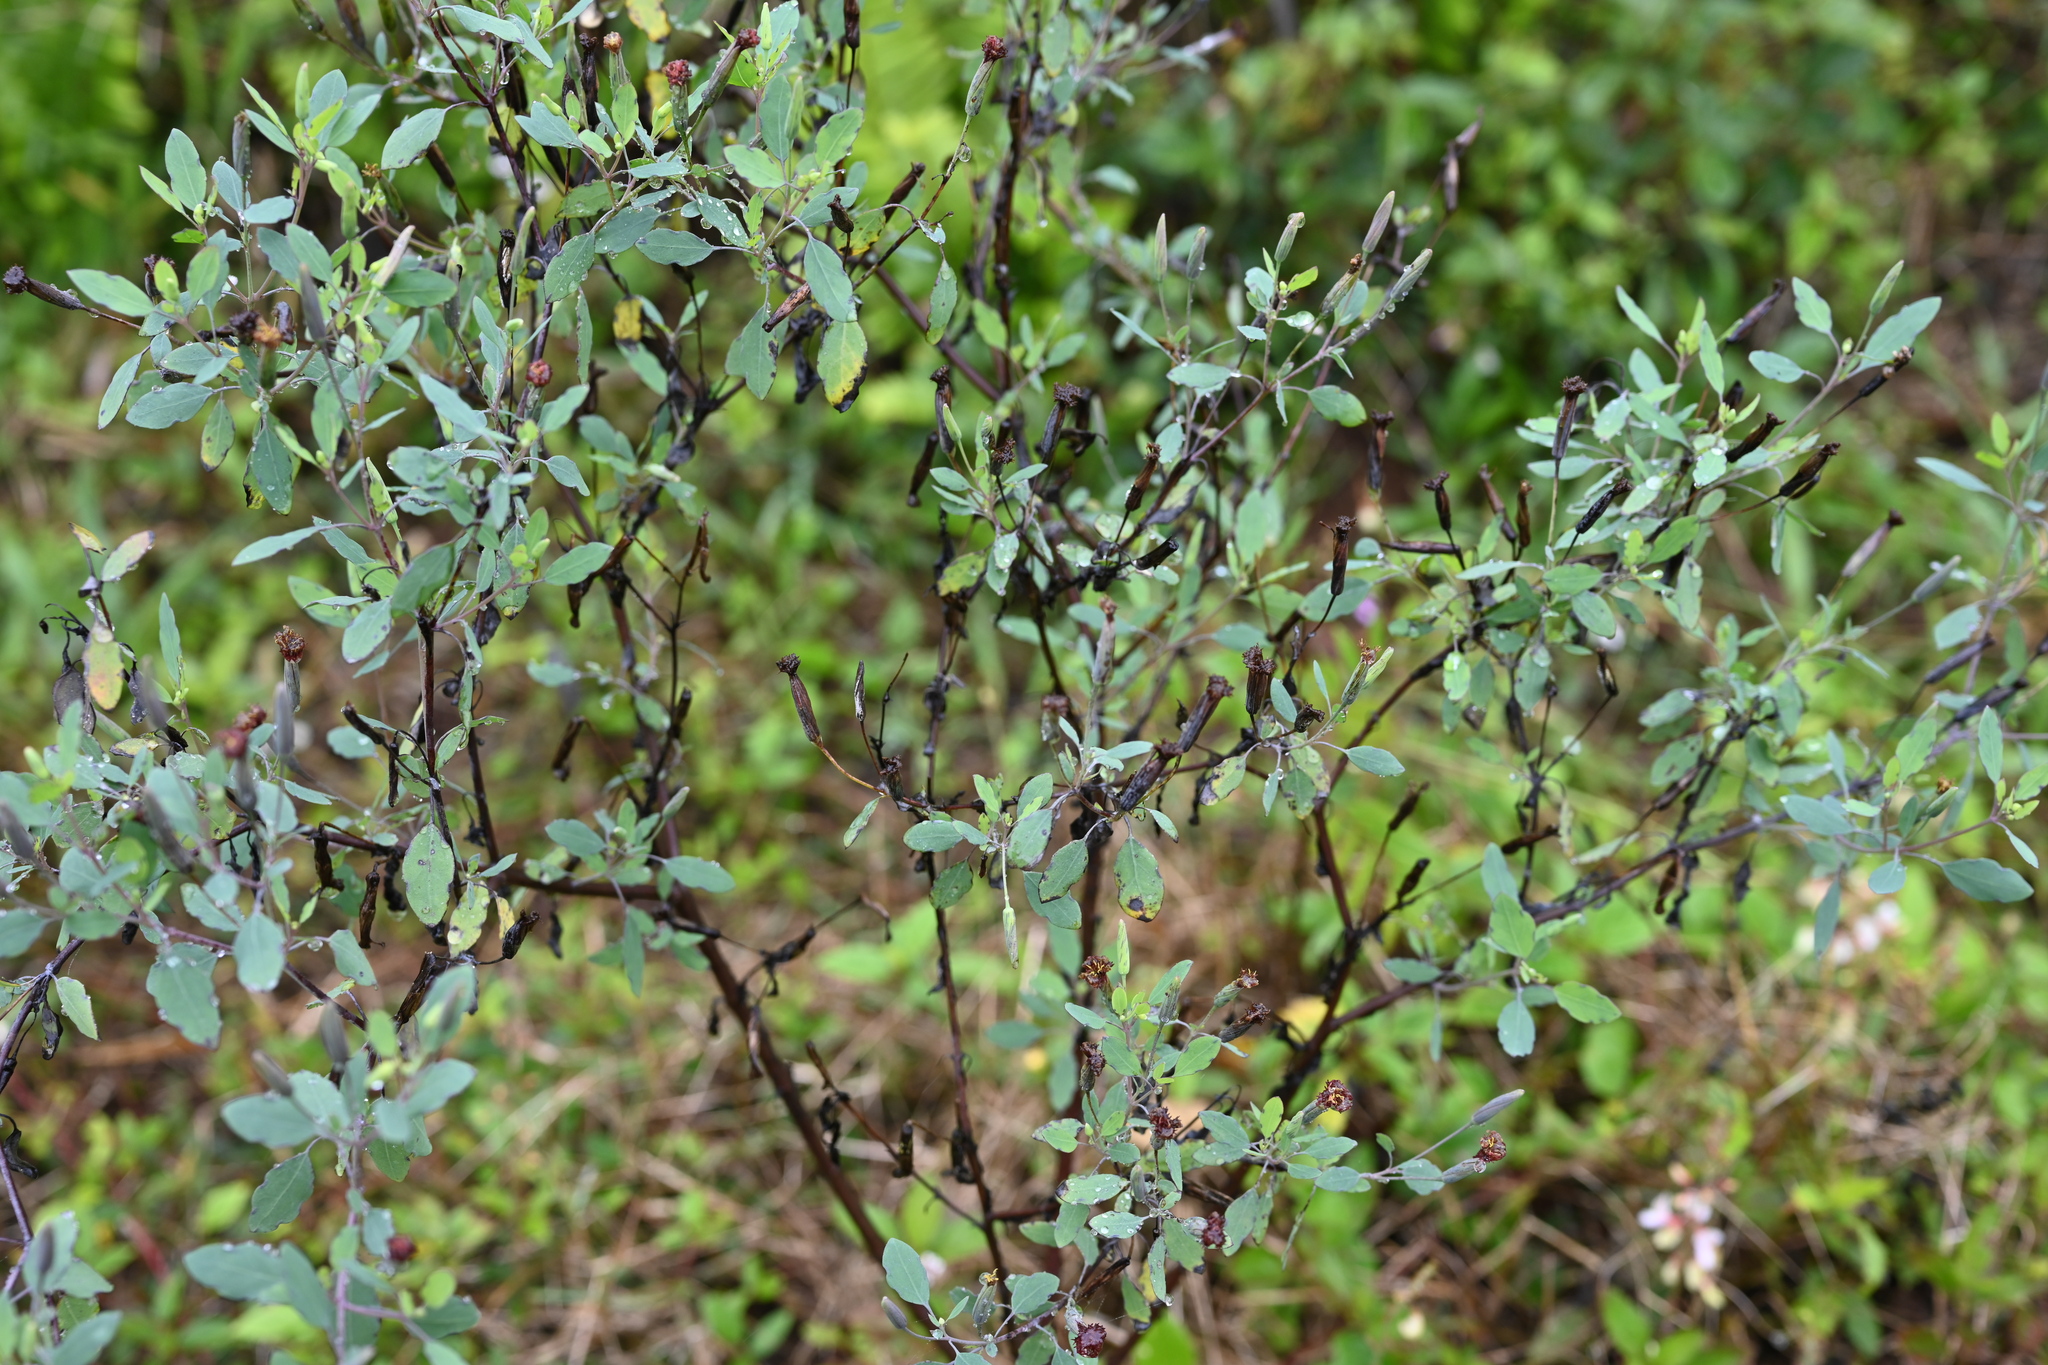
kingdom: Plantae
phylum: Tracheophyta
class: Magnoliopsida
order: Asterales
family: Asteraceae
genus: Porophyllum
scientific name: Porophyllum ruderale
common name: Yerba porosa
